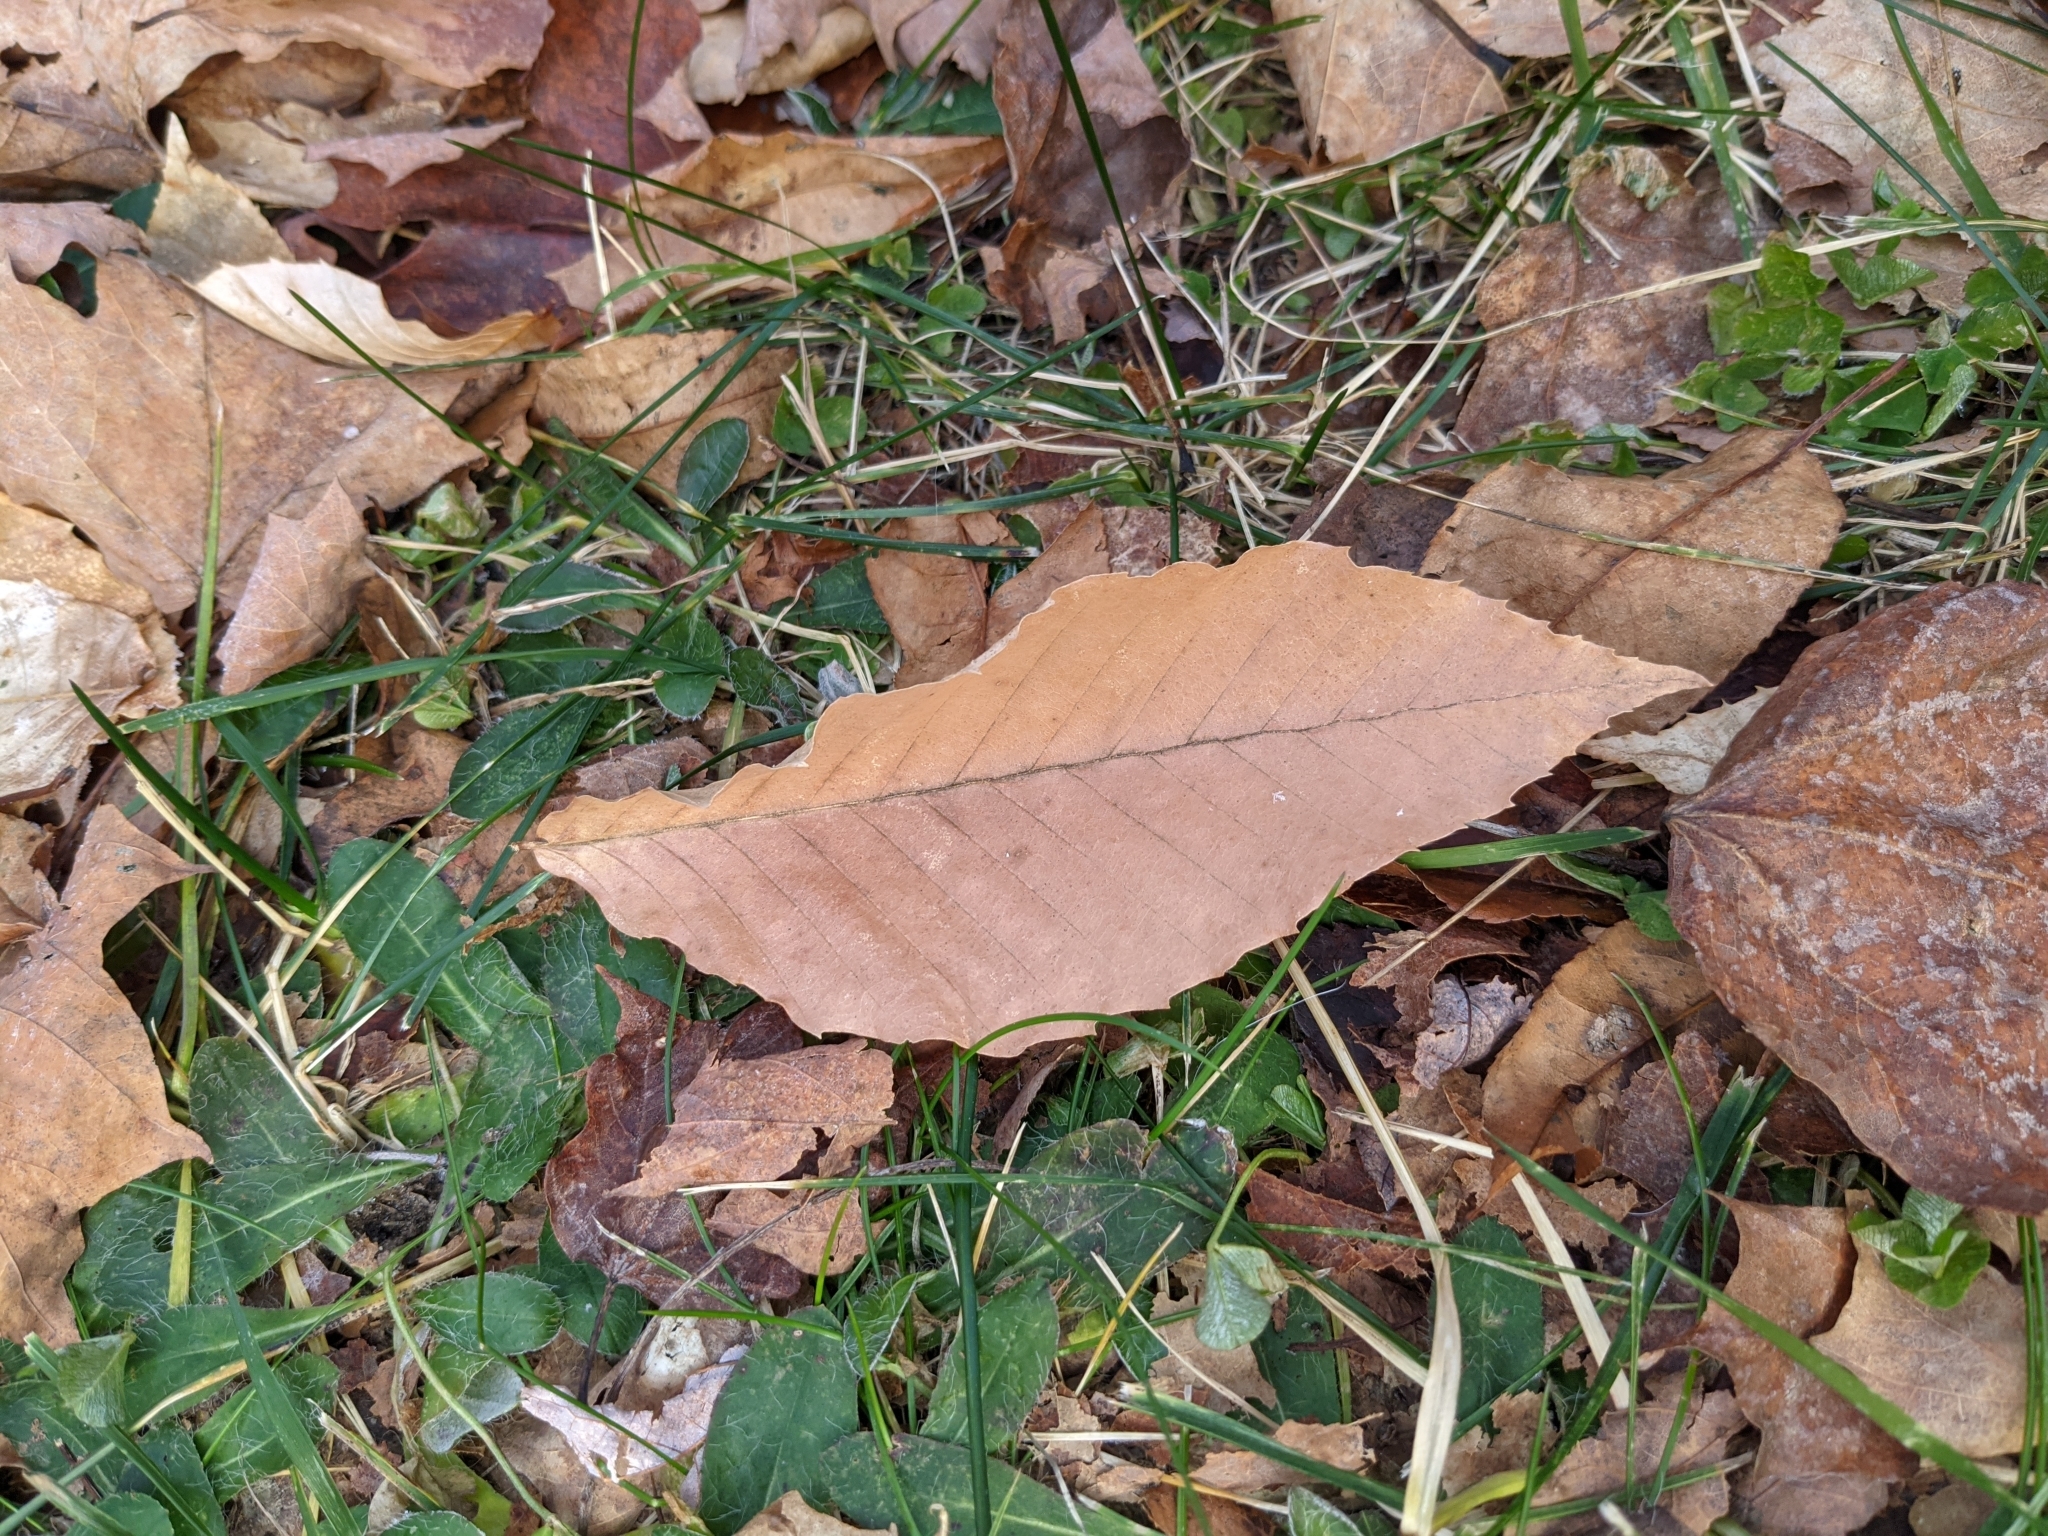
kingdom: Plantae
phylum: Tracheophyta
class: Magnoliopsida
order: Fagales
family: Fagaceae
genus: Fagus
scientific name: Fagus grandifolia
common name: American beech
